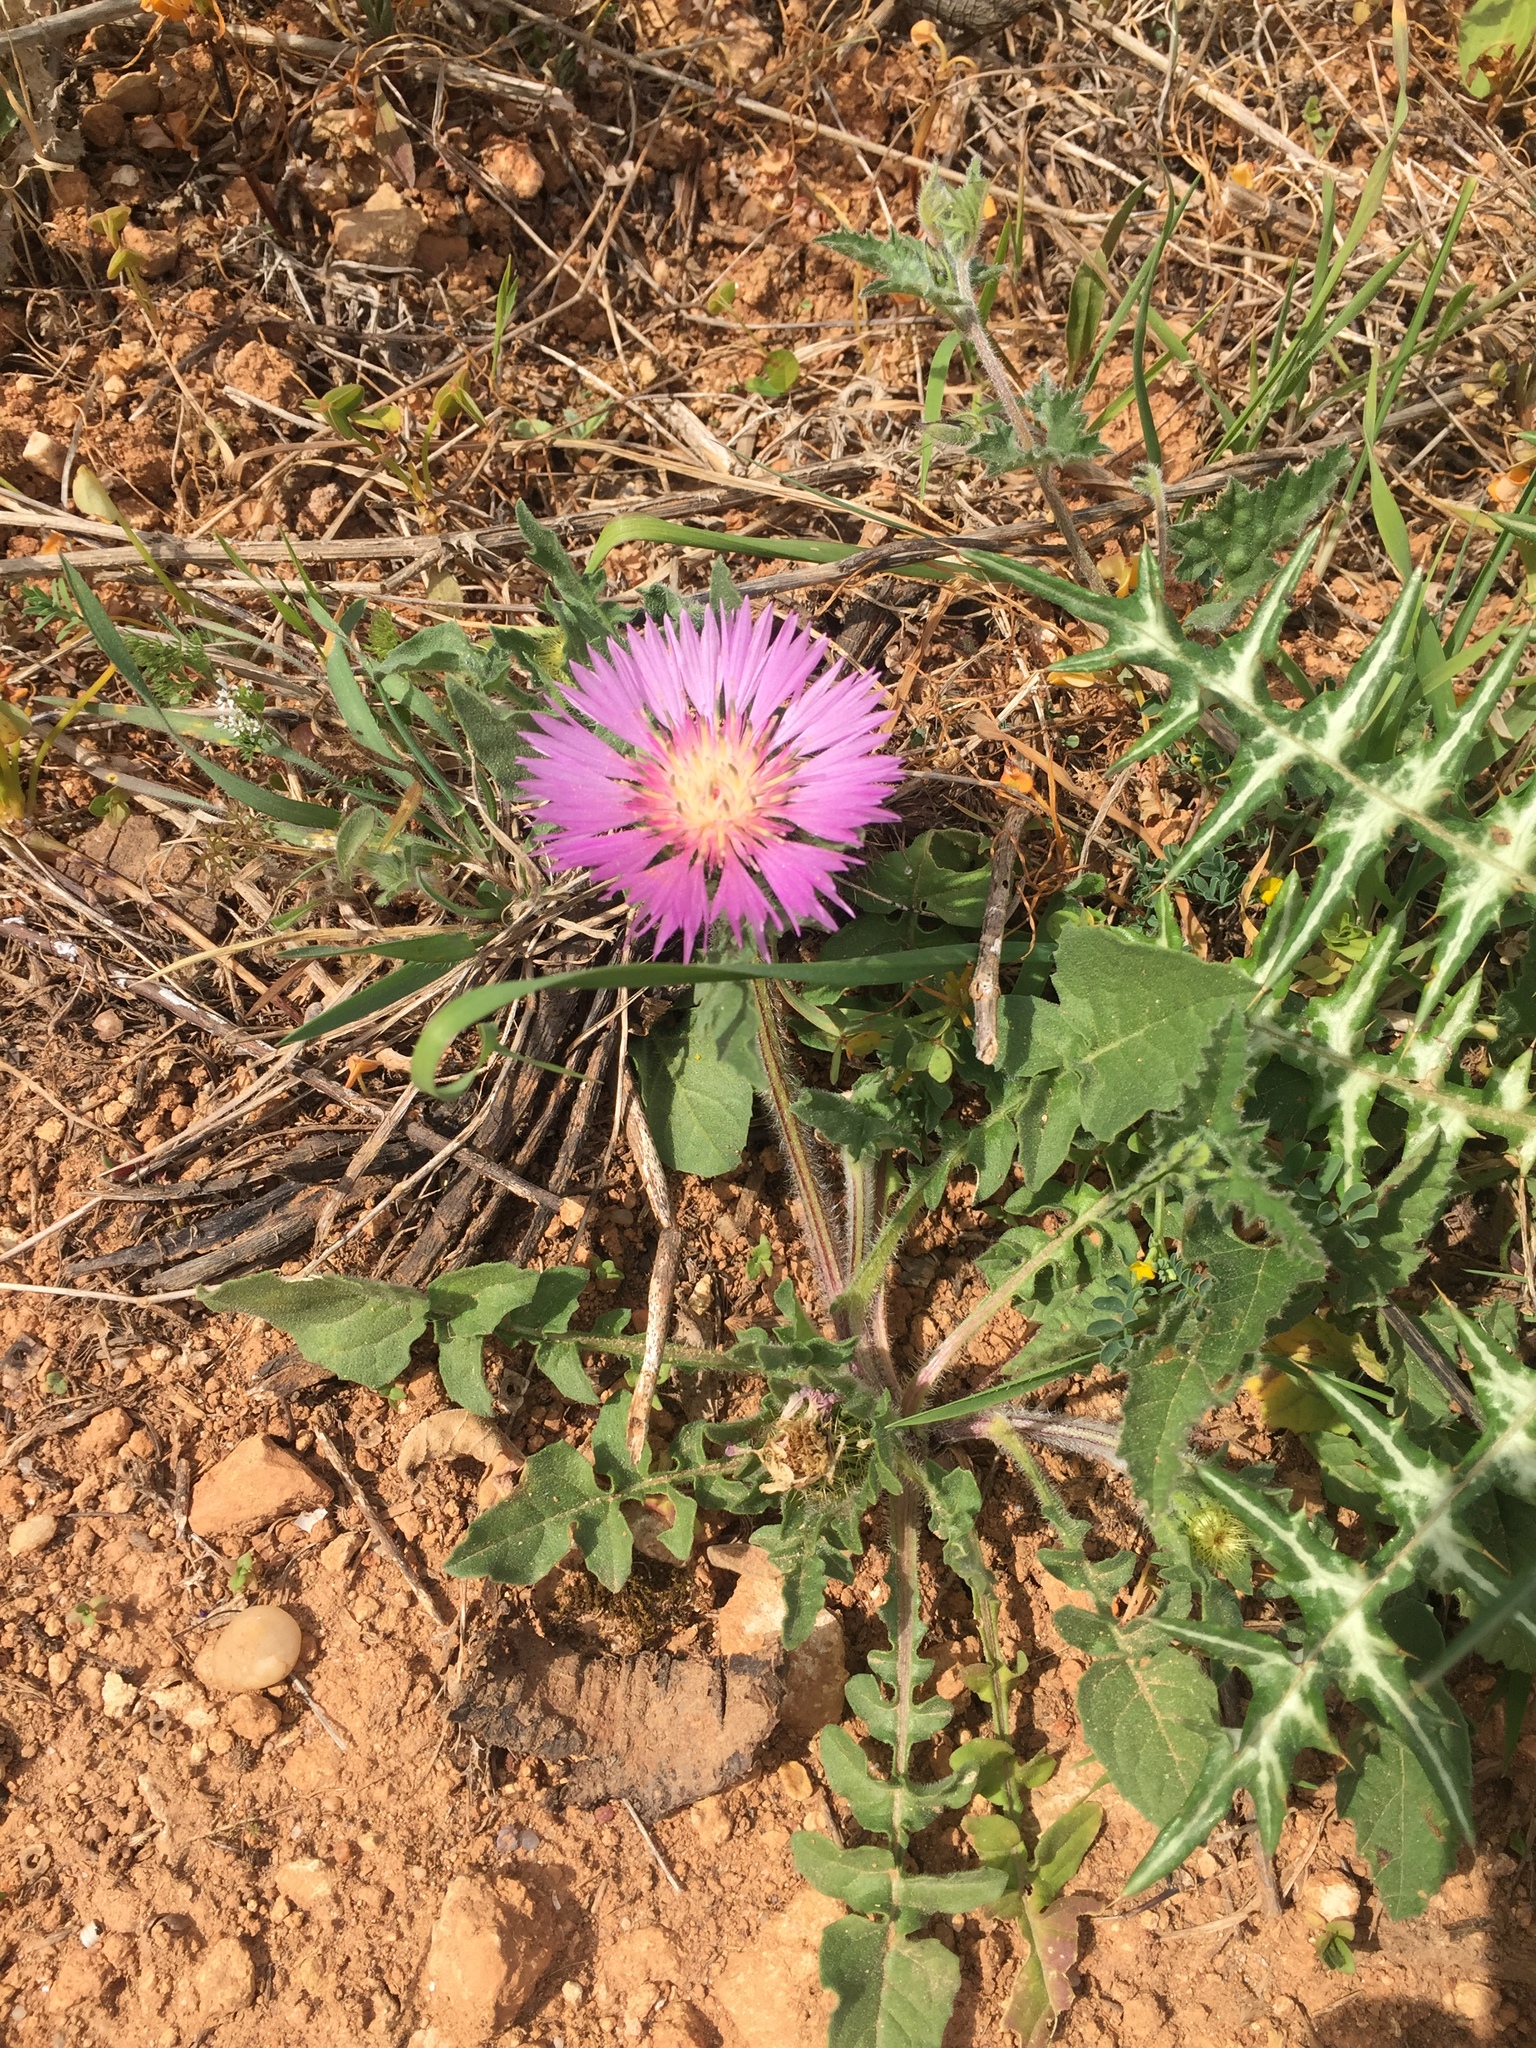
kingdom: Plantae
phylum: Tracheophyta
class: Magnoliopsida
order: Asterales
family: Asteraceae
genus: Centaurea
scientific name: Centaurea pullata
